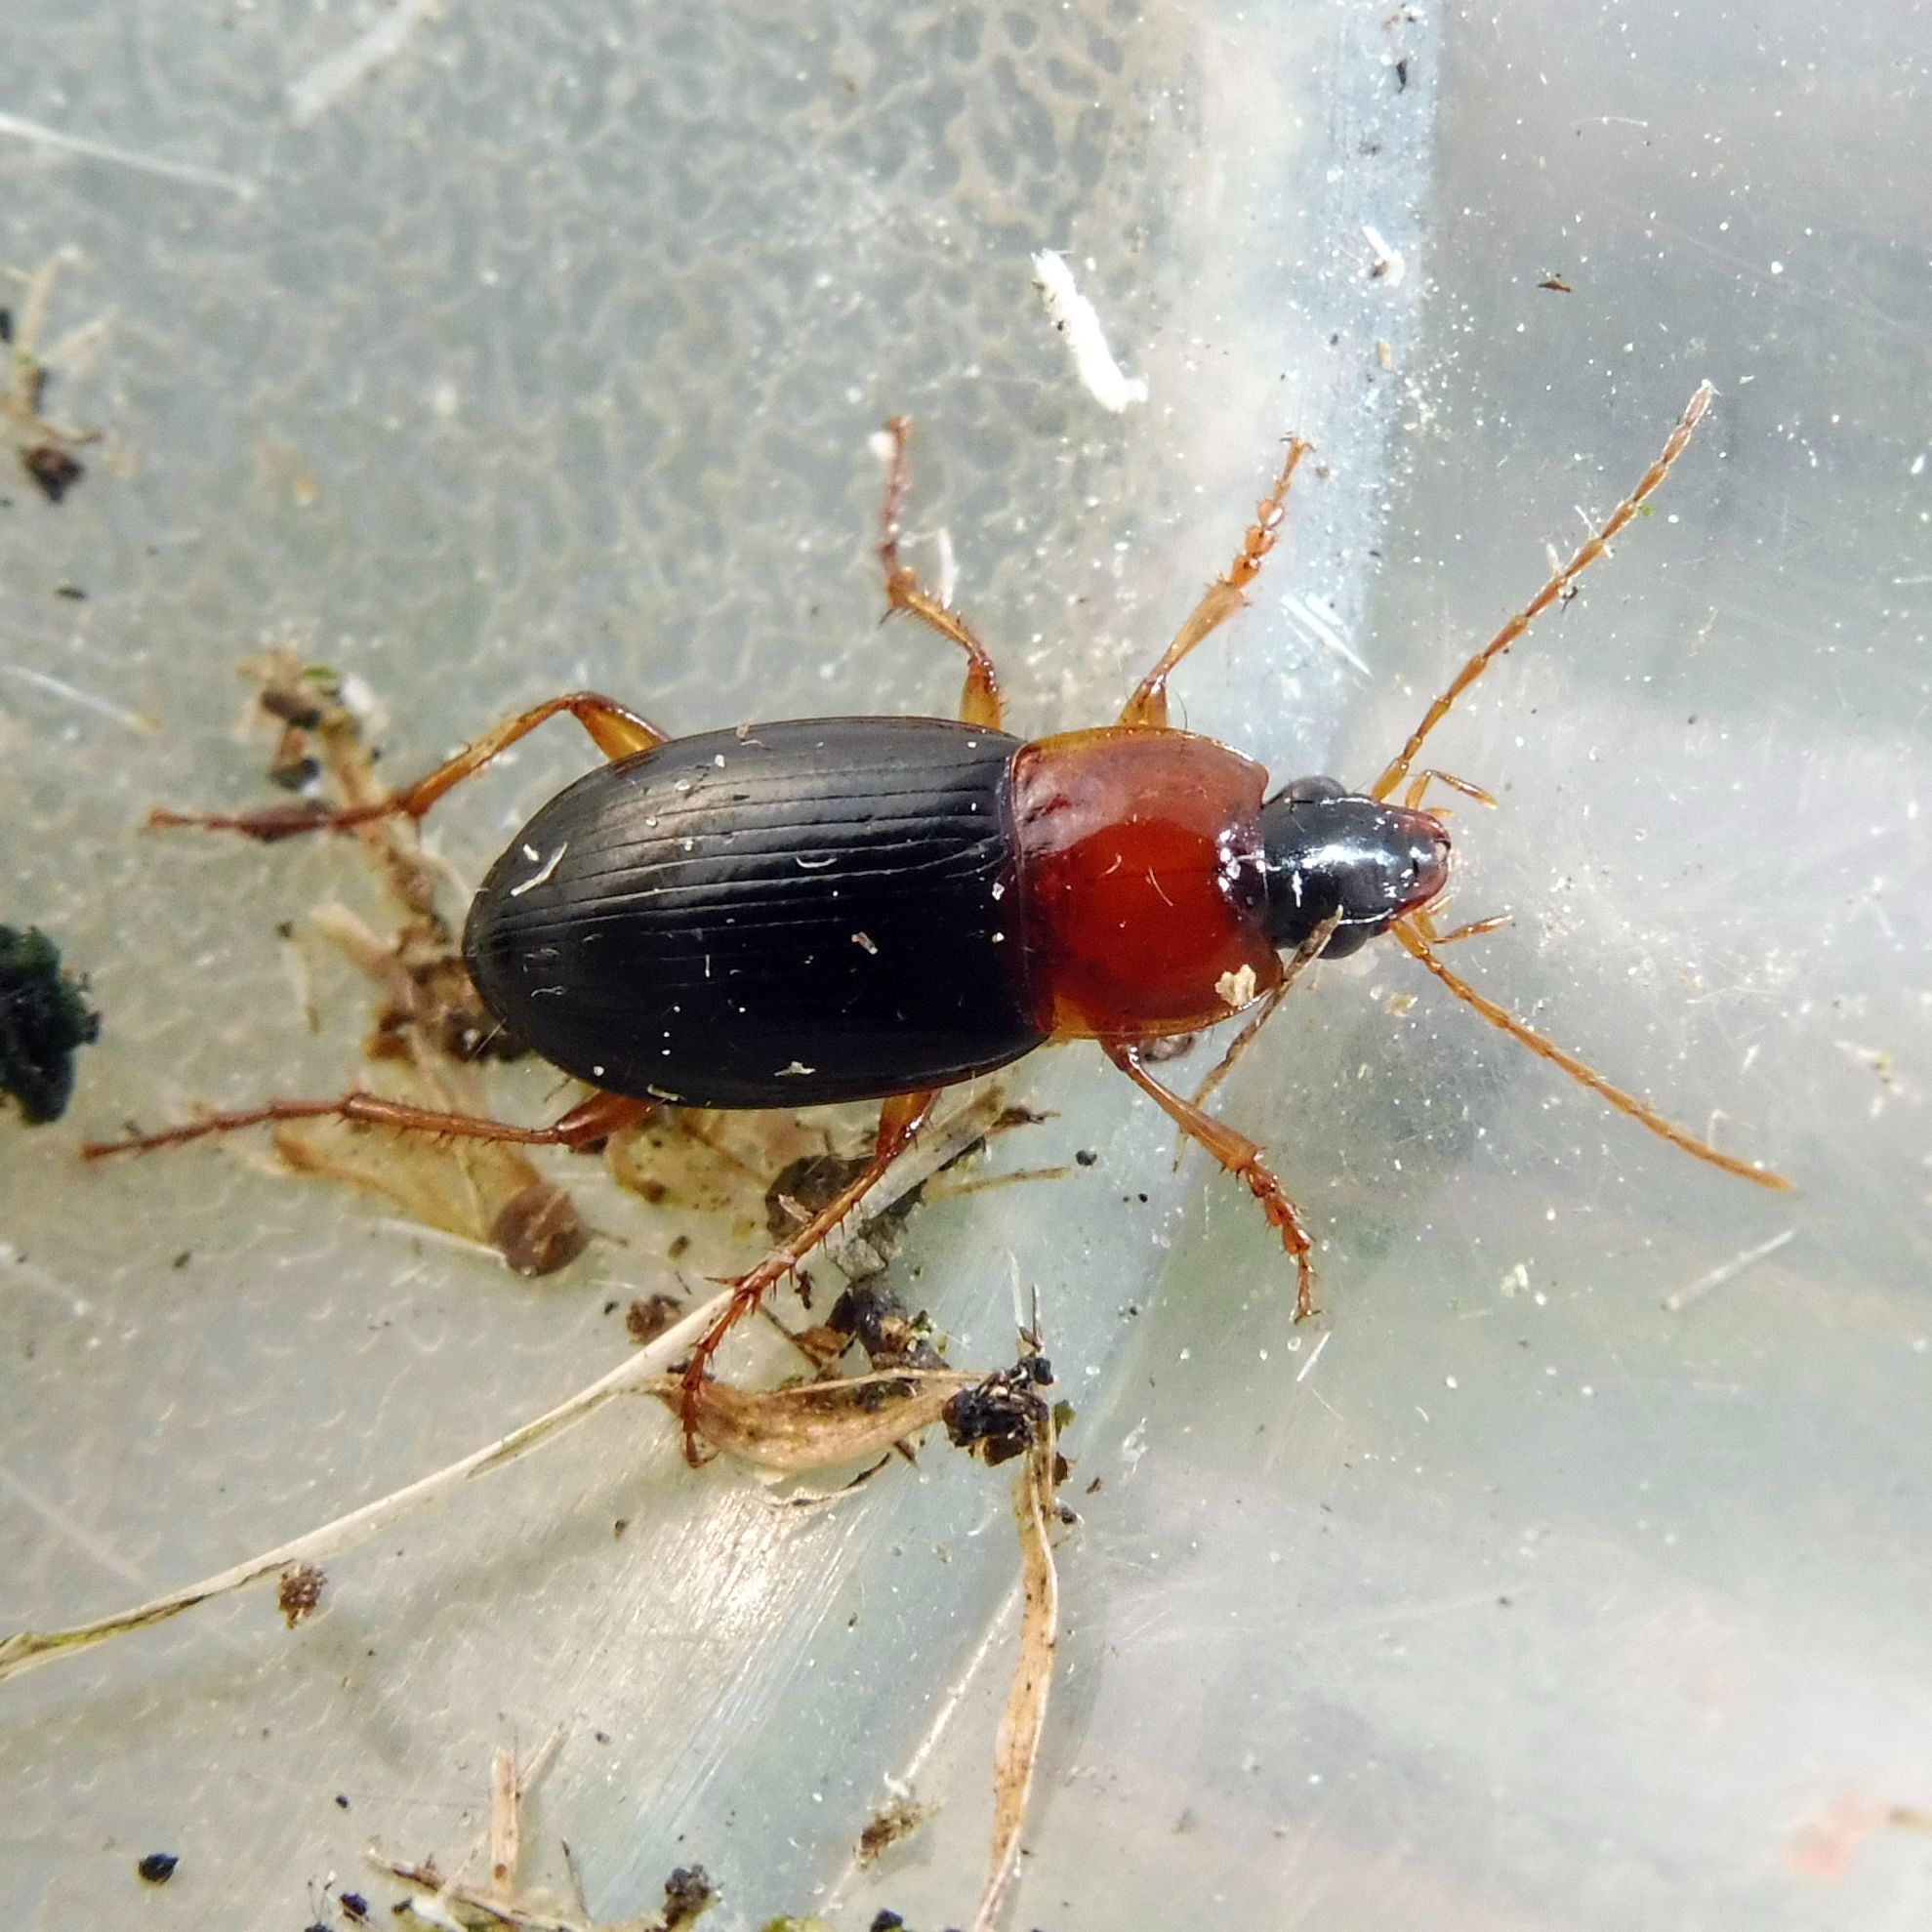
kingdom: Animalia
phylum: Arthropoda
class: Insecta
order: Coleoptera
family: Carabidae
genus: Calathus
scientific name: Calathus melanocephalus
